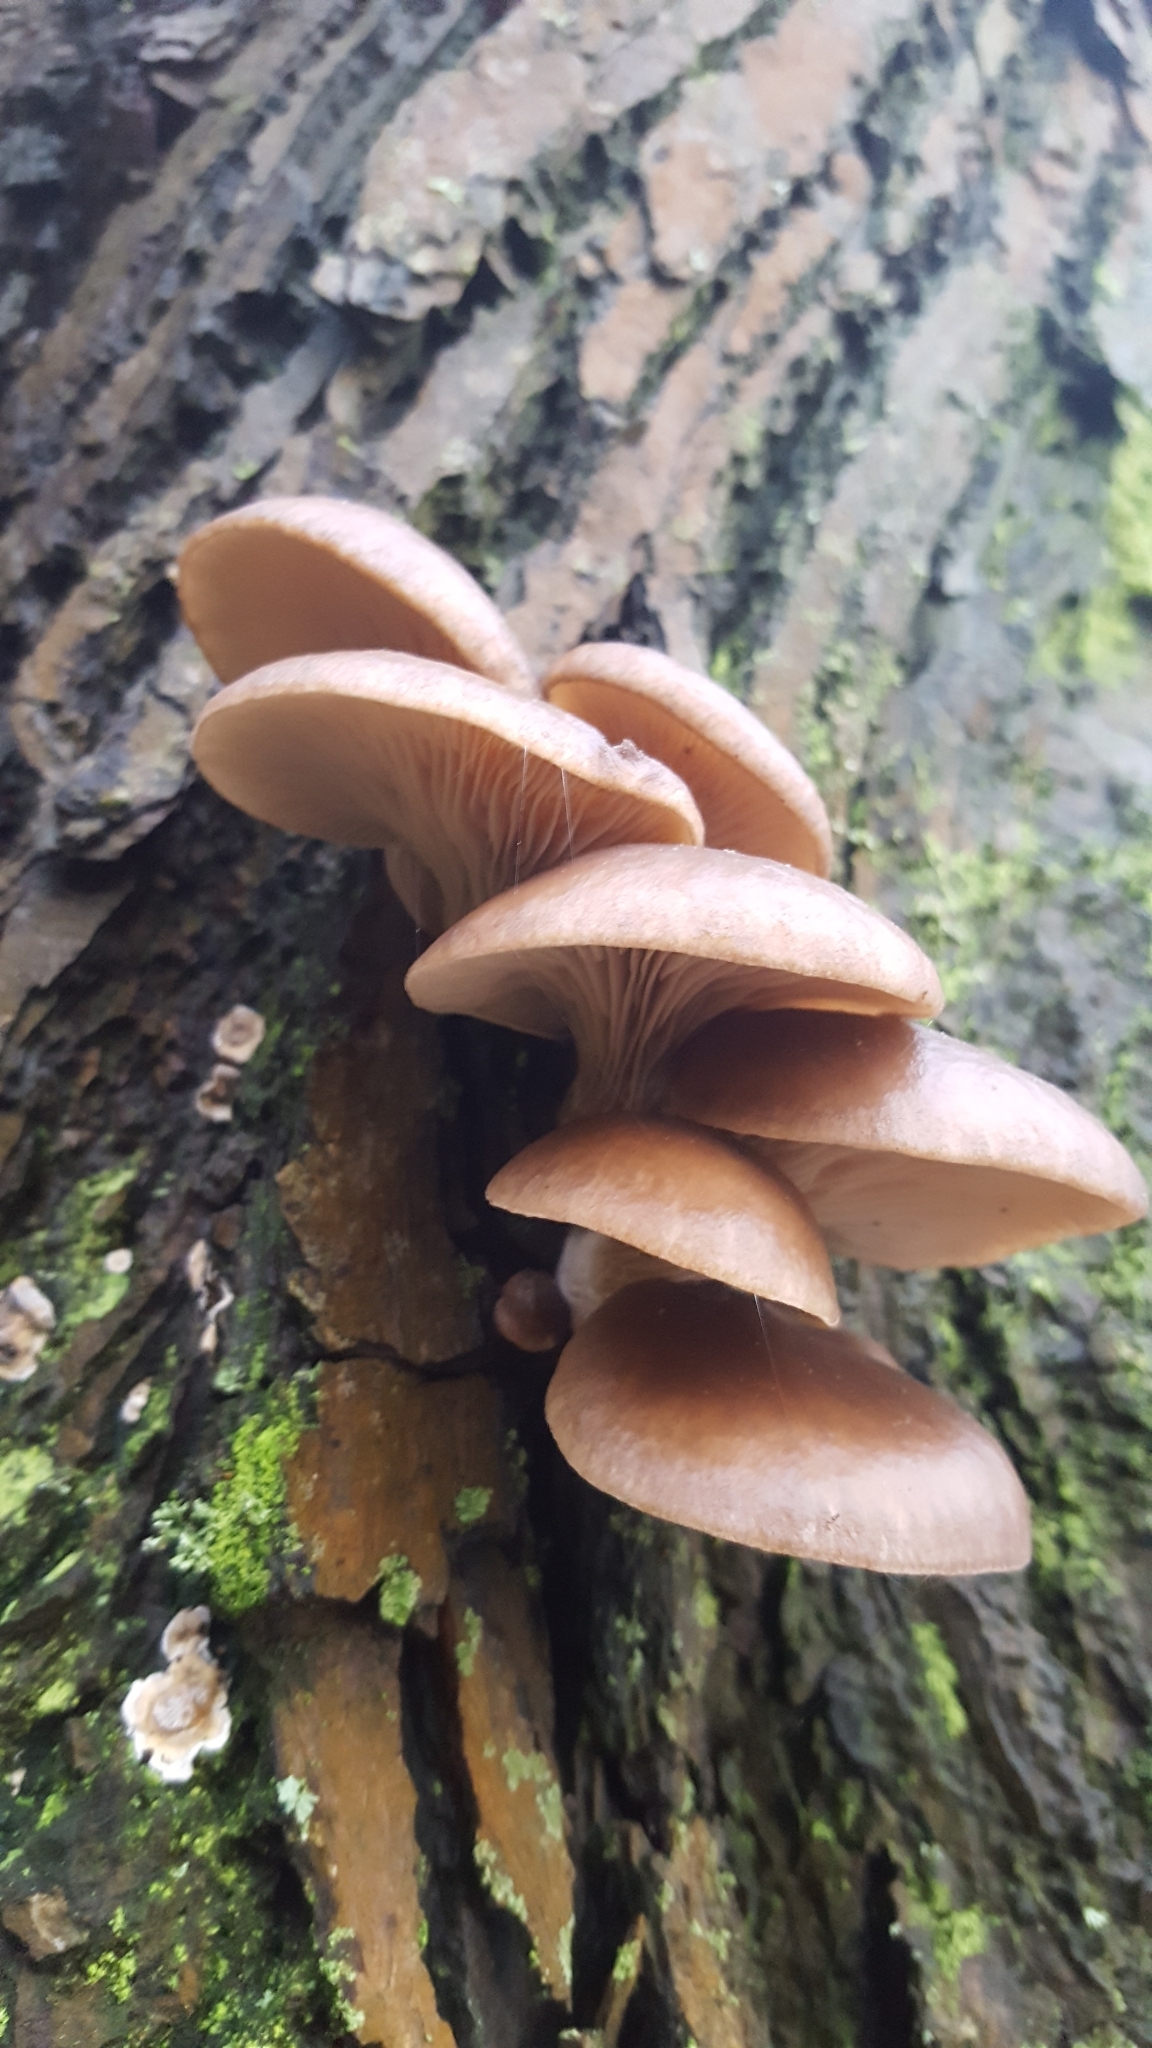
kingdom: Fungi
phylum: Basidiomycota
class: Agaricomycetes
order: Agaricales
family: Pleurotaceae
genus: Pleurotus
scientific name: Pleurotus ostreatus
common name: Oyster mushroom
